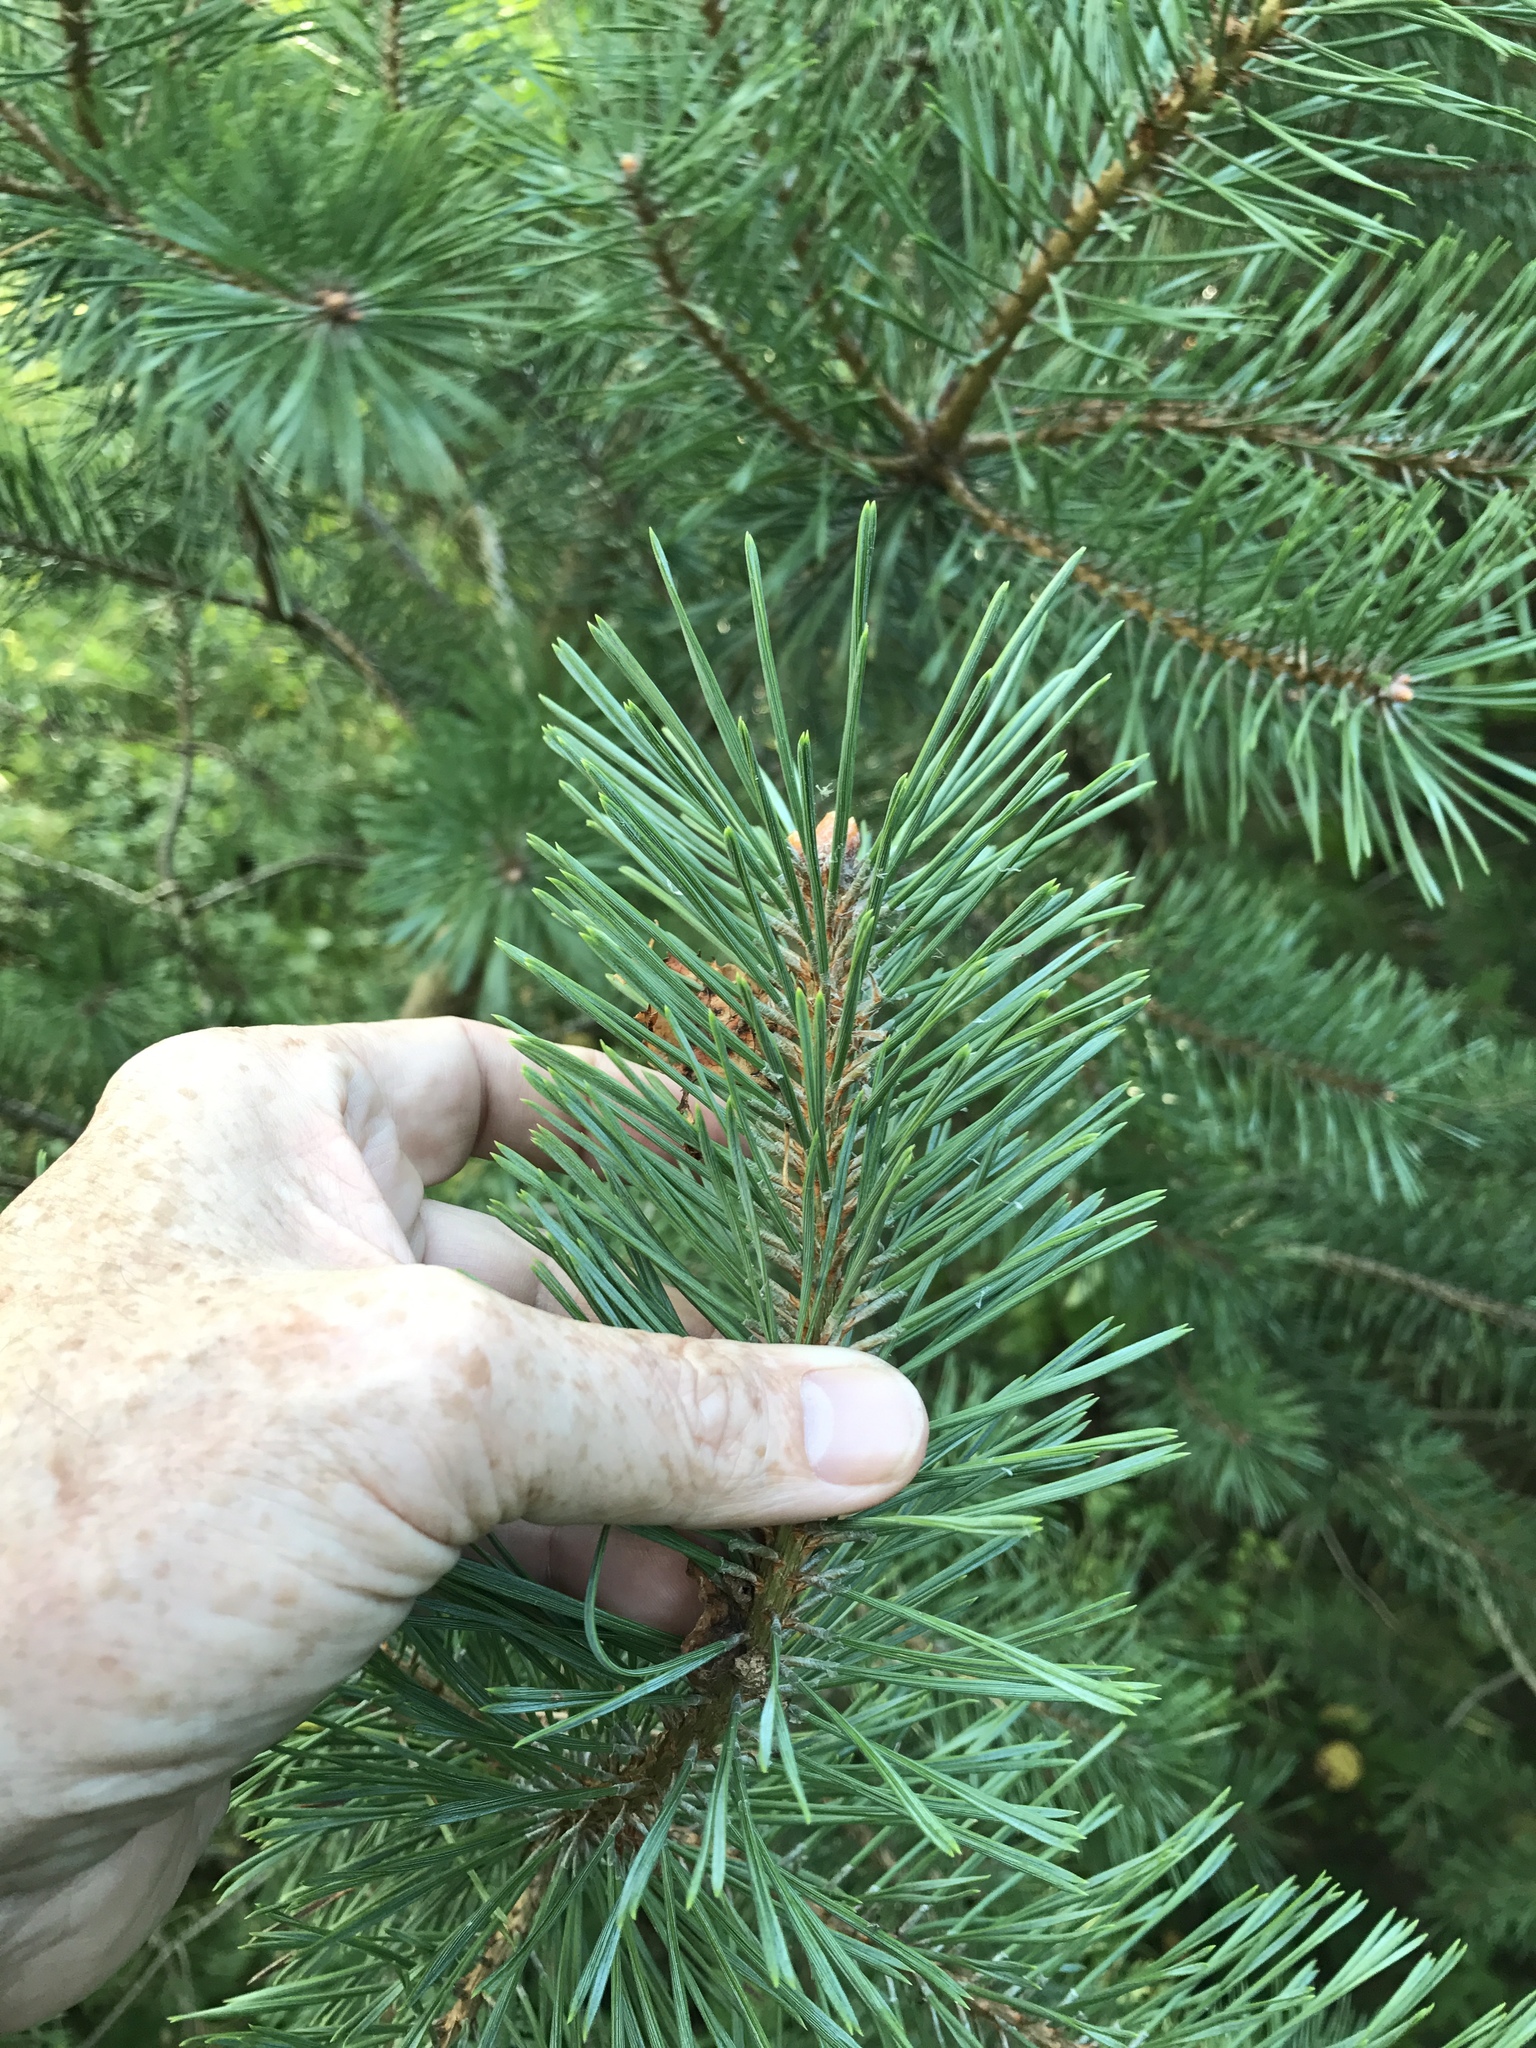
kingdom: Plantae
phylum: Tracheophyta
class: Pinopsida
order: Pinales
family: Pinaceae
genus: Pinus
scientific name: Pinus sylvestris
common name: Scots pine
